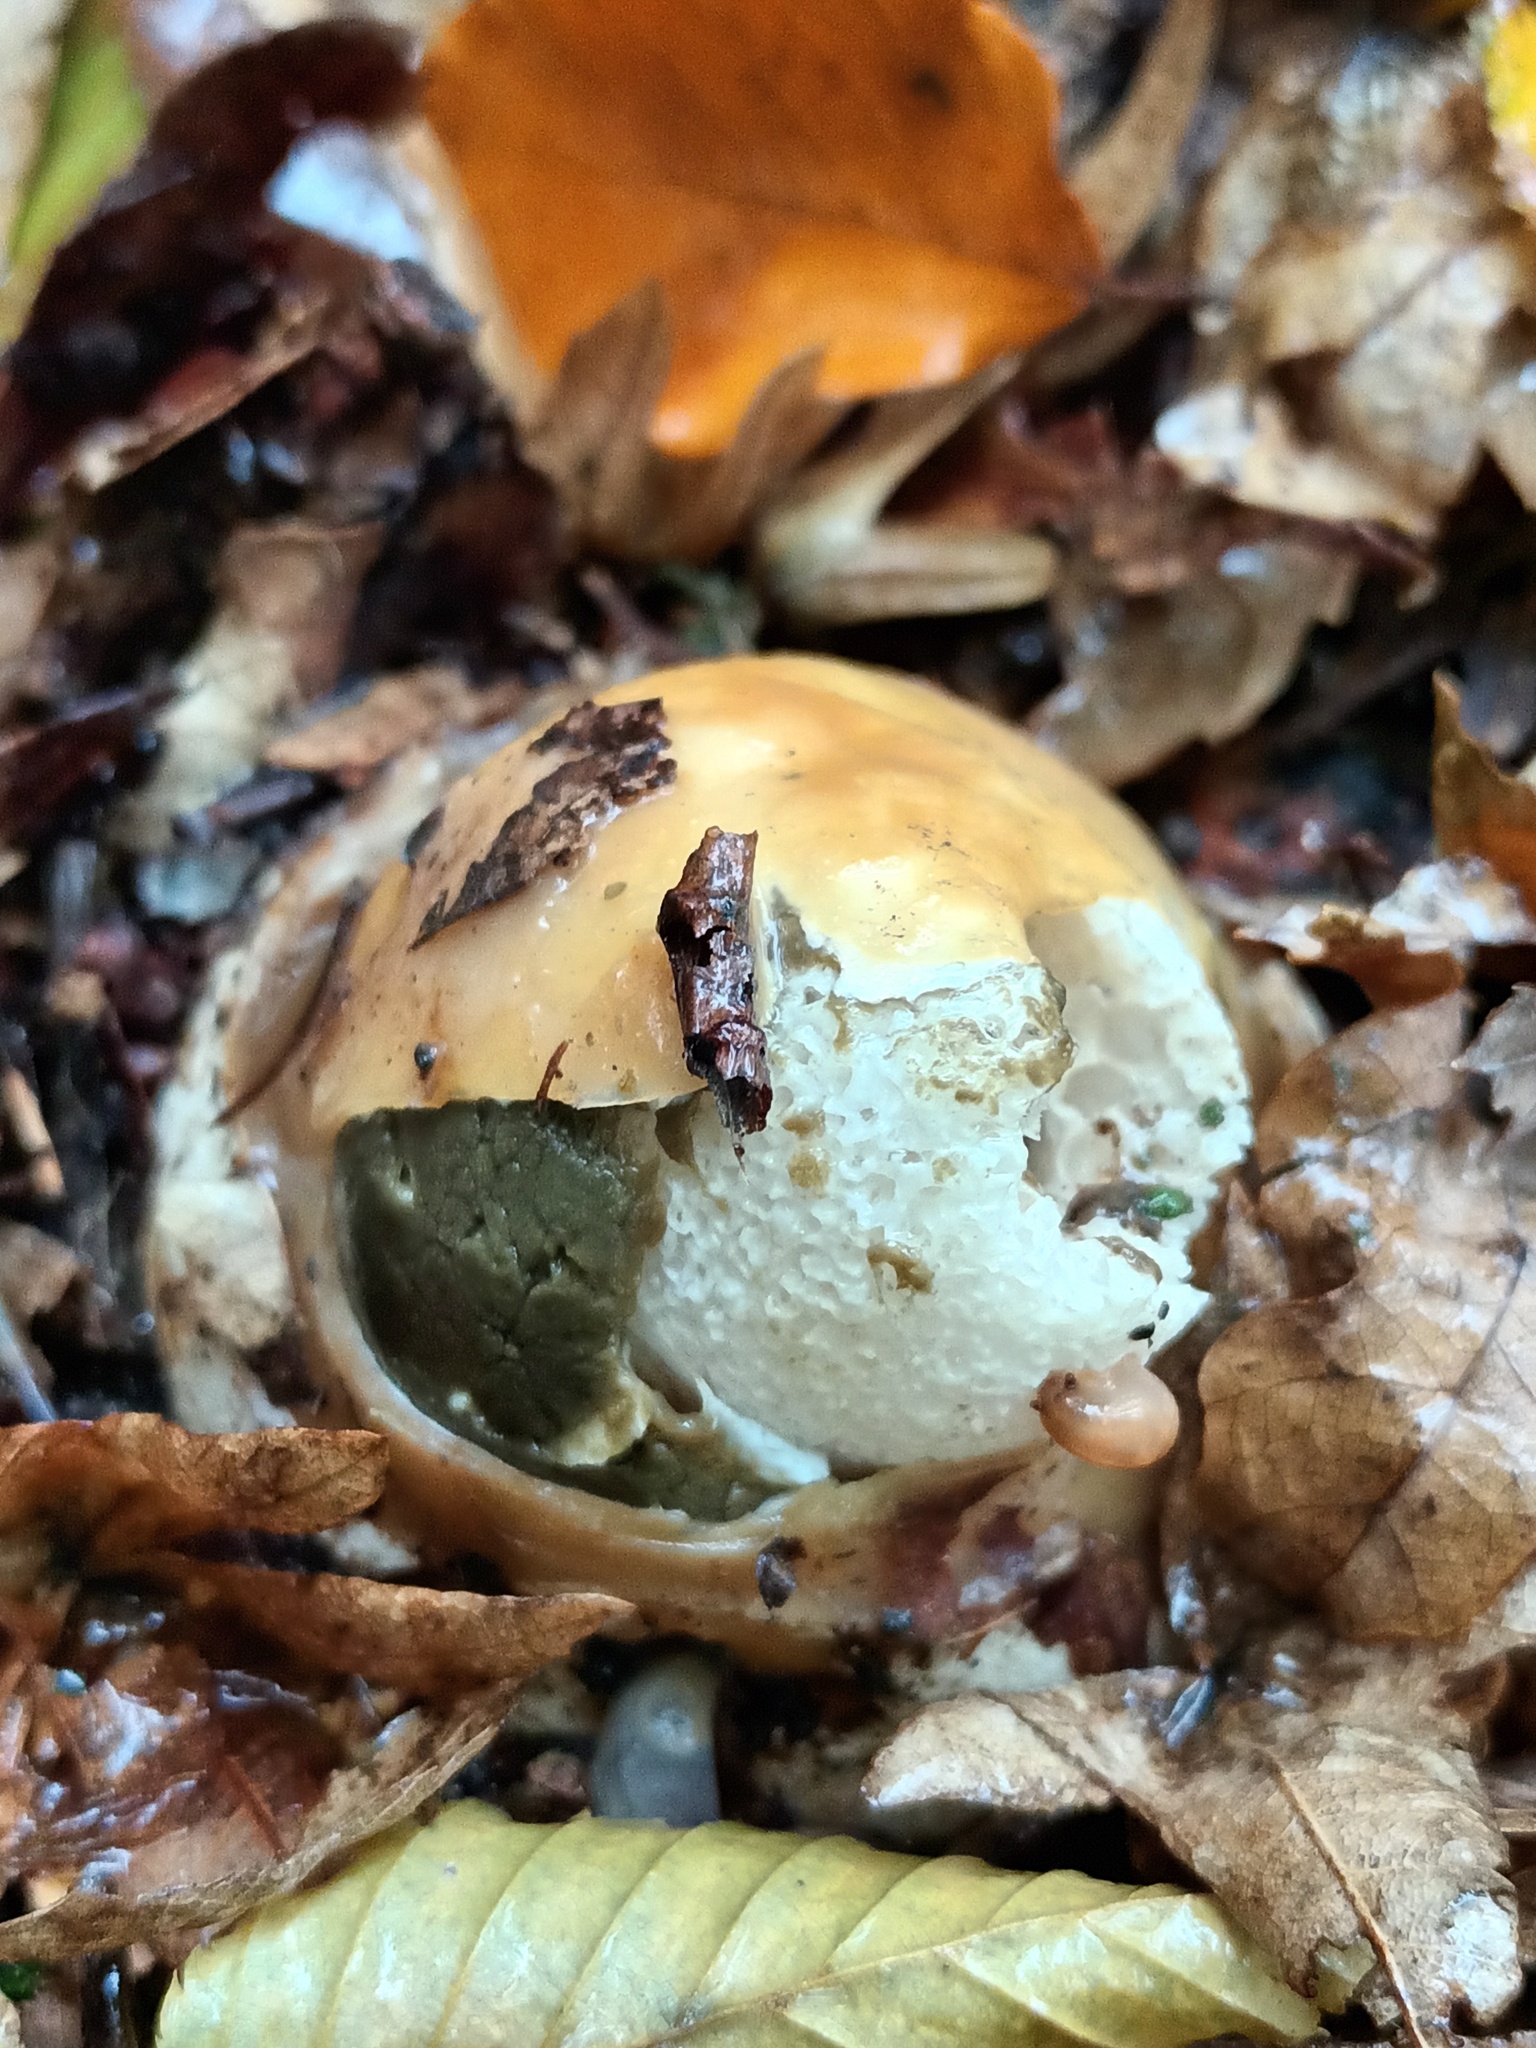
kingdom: Fungi
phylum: Basidiomycota
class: Agaricomycetes
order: Phallales
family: Phallaceae
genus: Phallus
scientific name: Phallus impudicus
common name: Common stinkhorn
